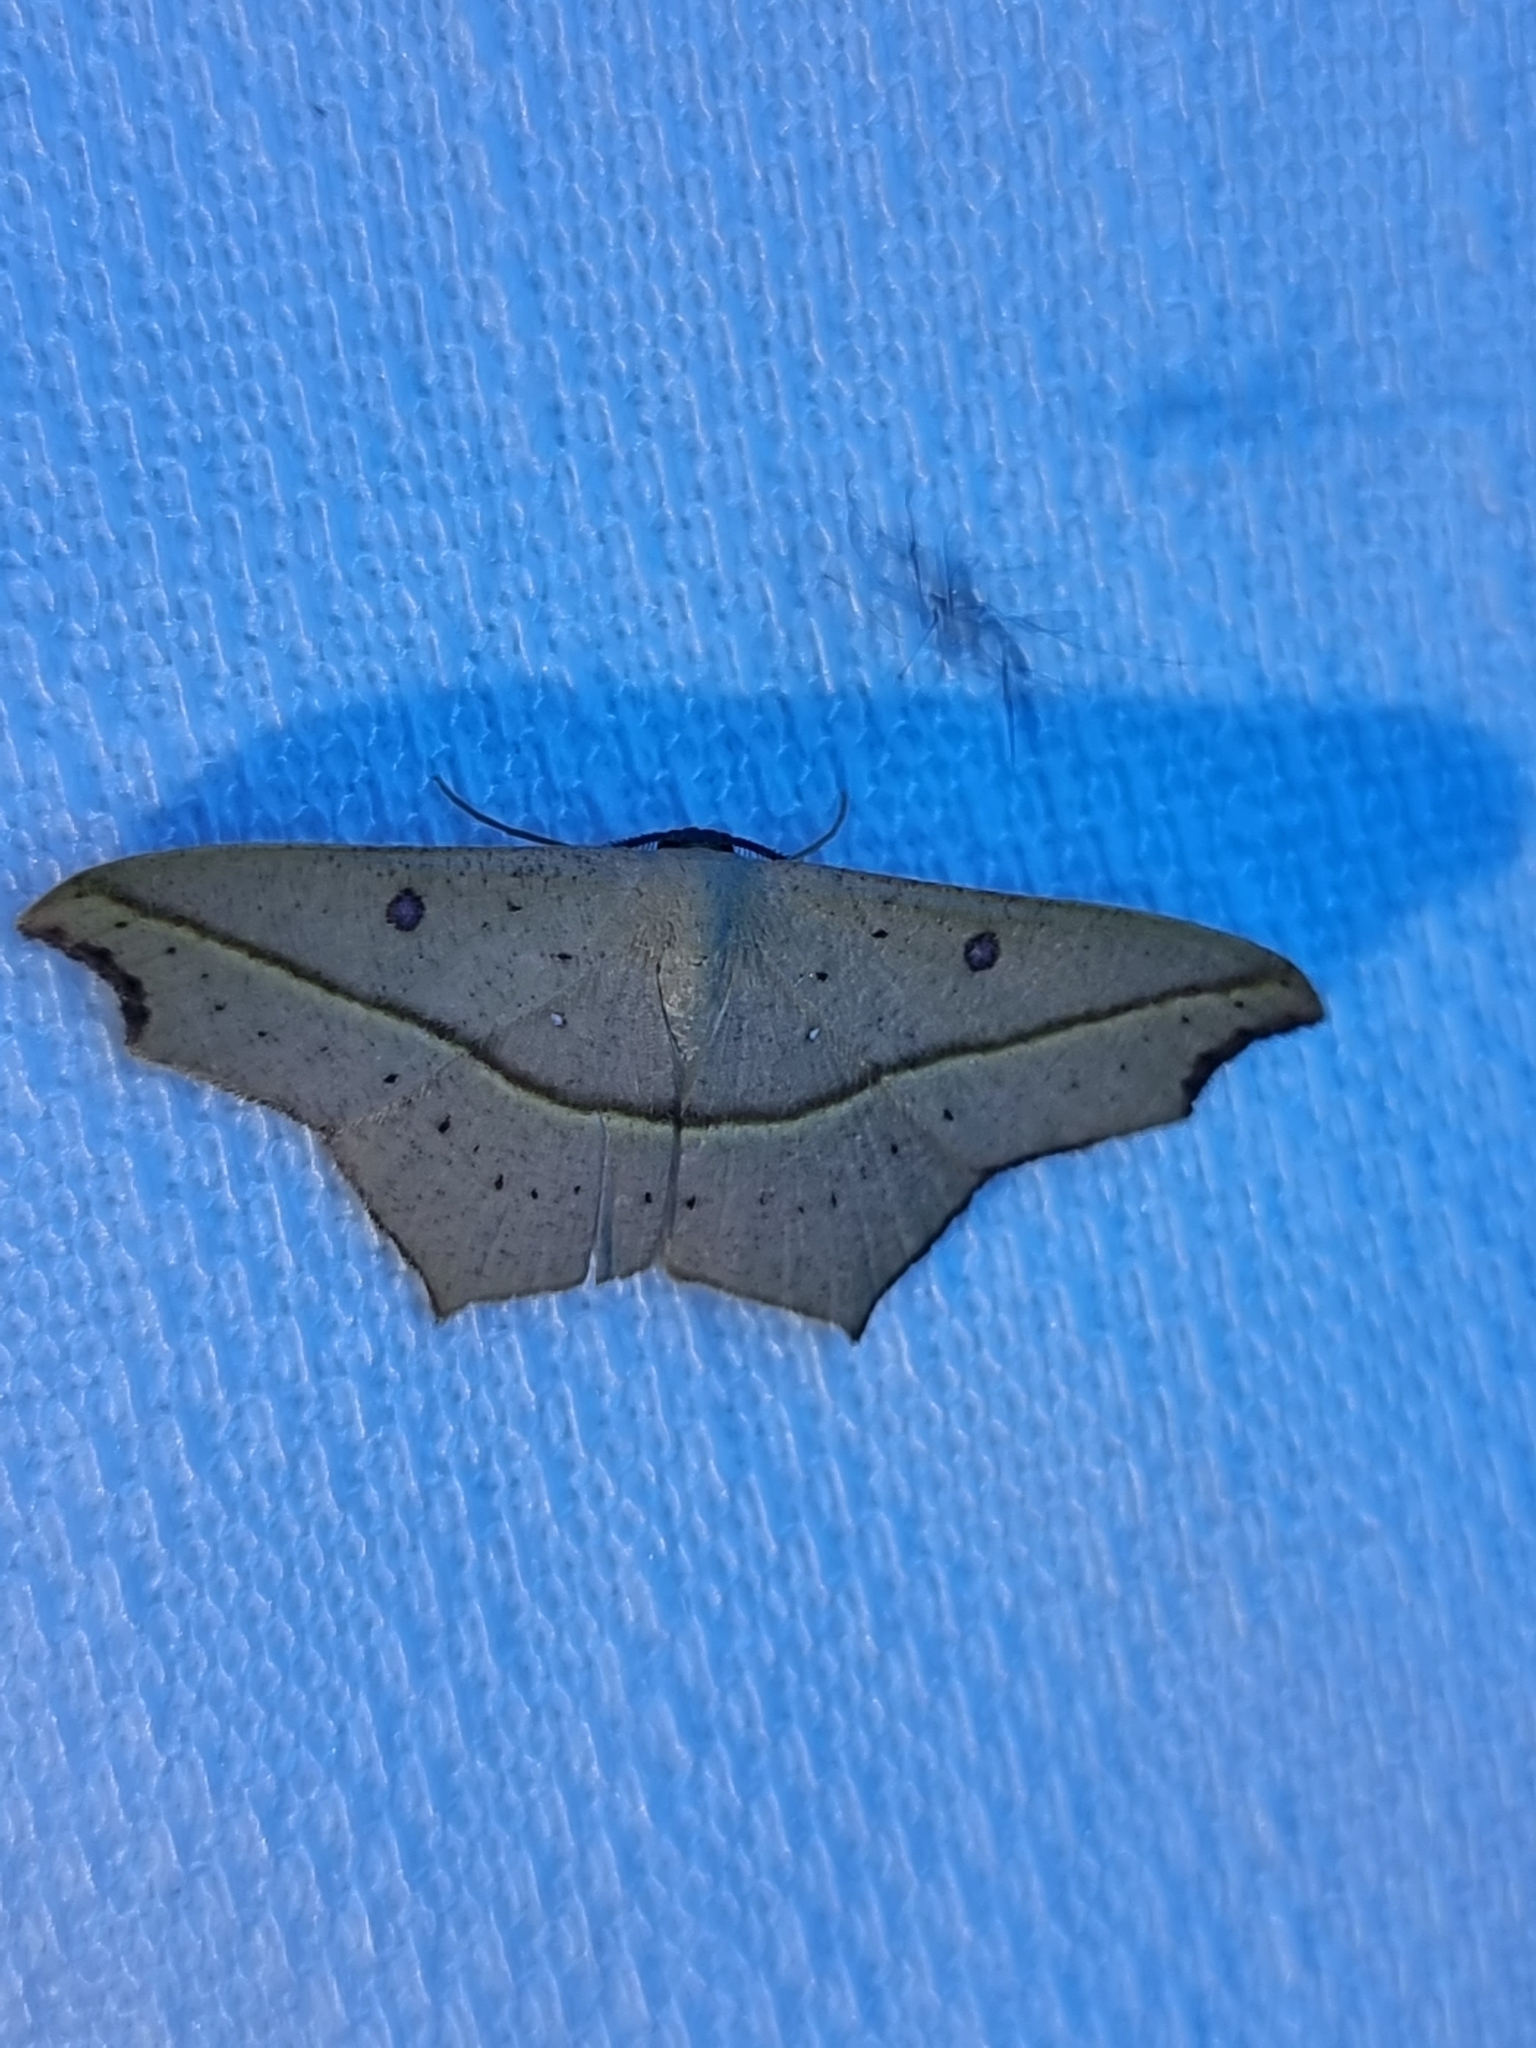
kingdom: Animalia
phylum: Arthropoda
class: Insecta
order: Lepidoptera
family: Geometridae
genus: Traminda
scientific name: Traminda aventiaria
